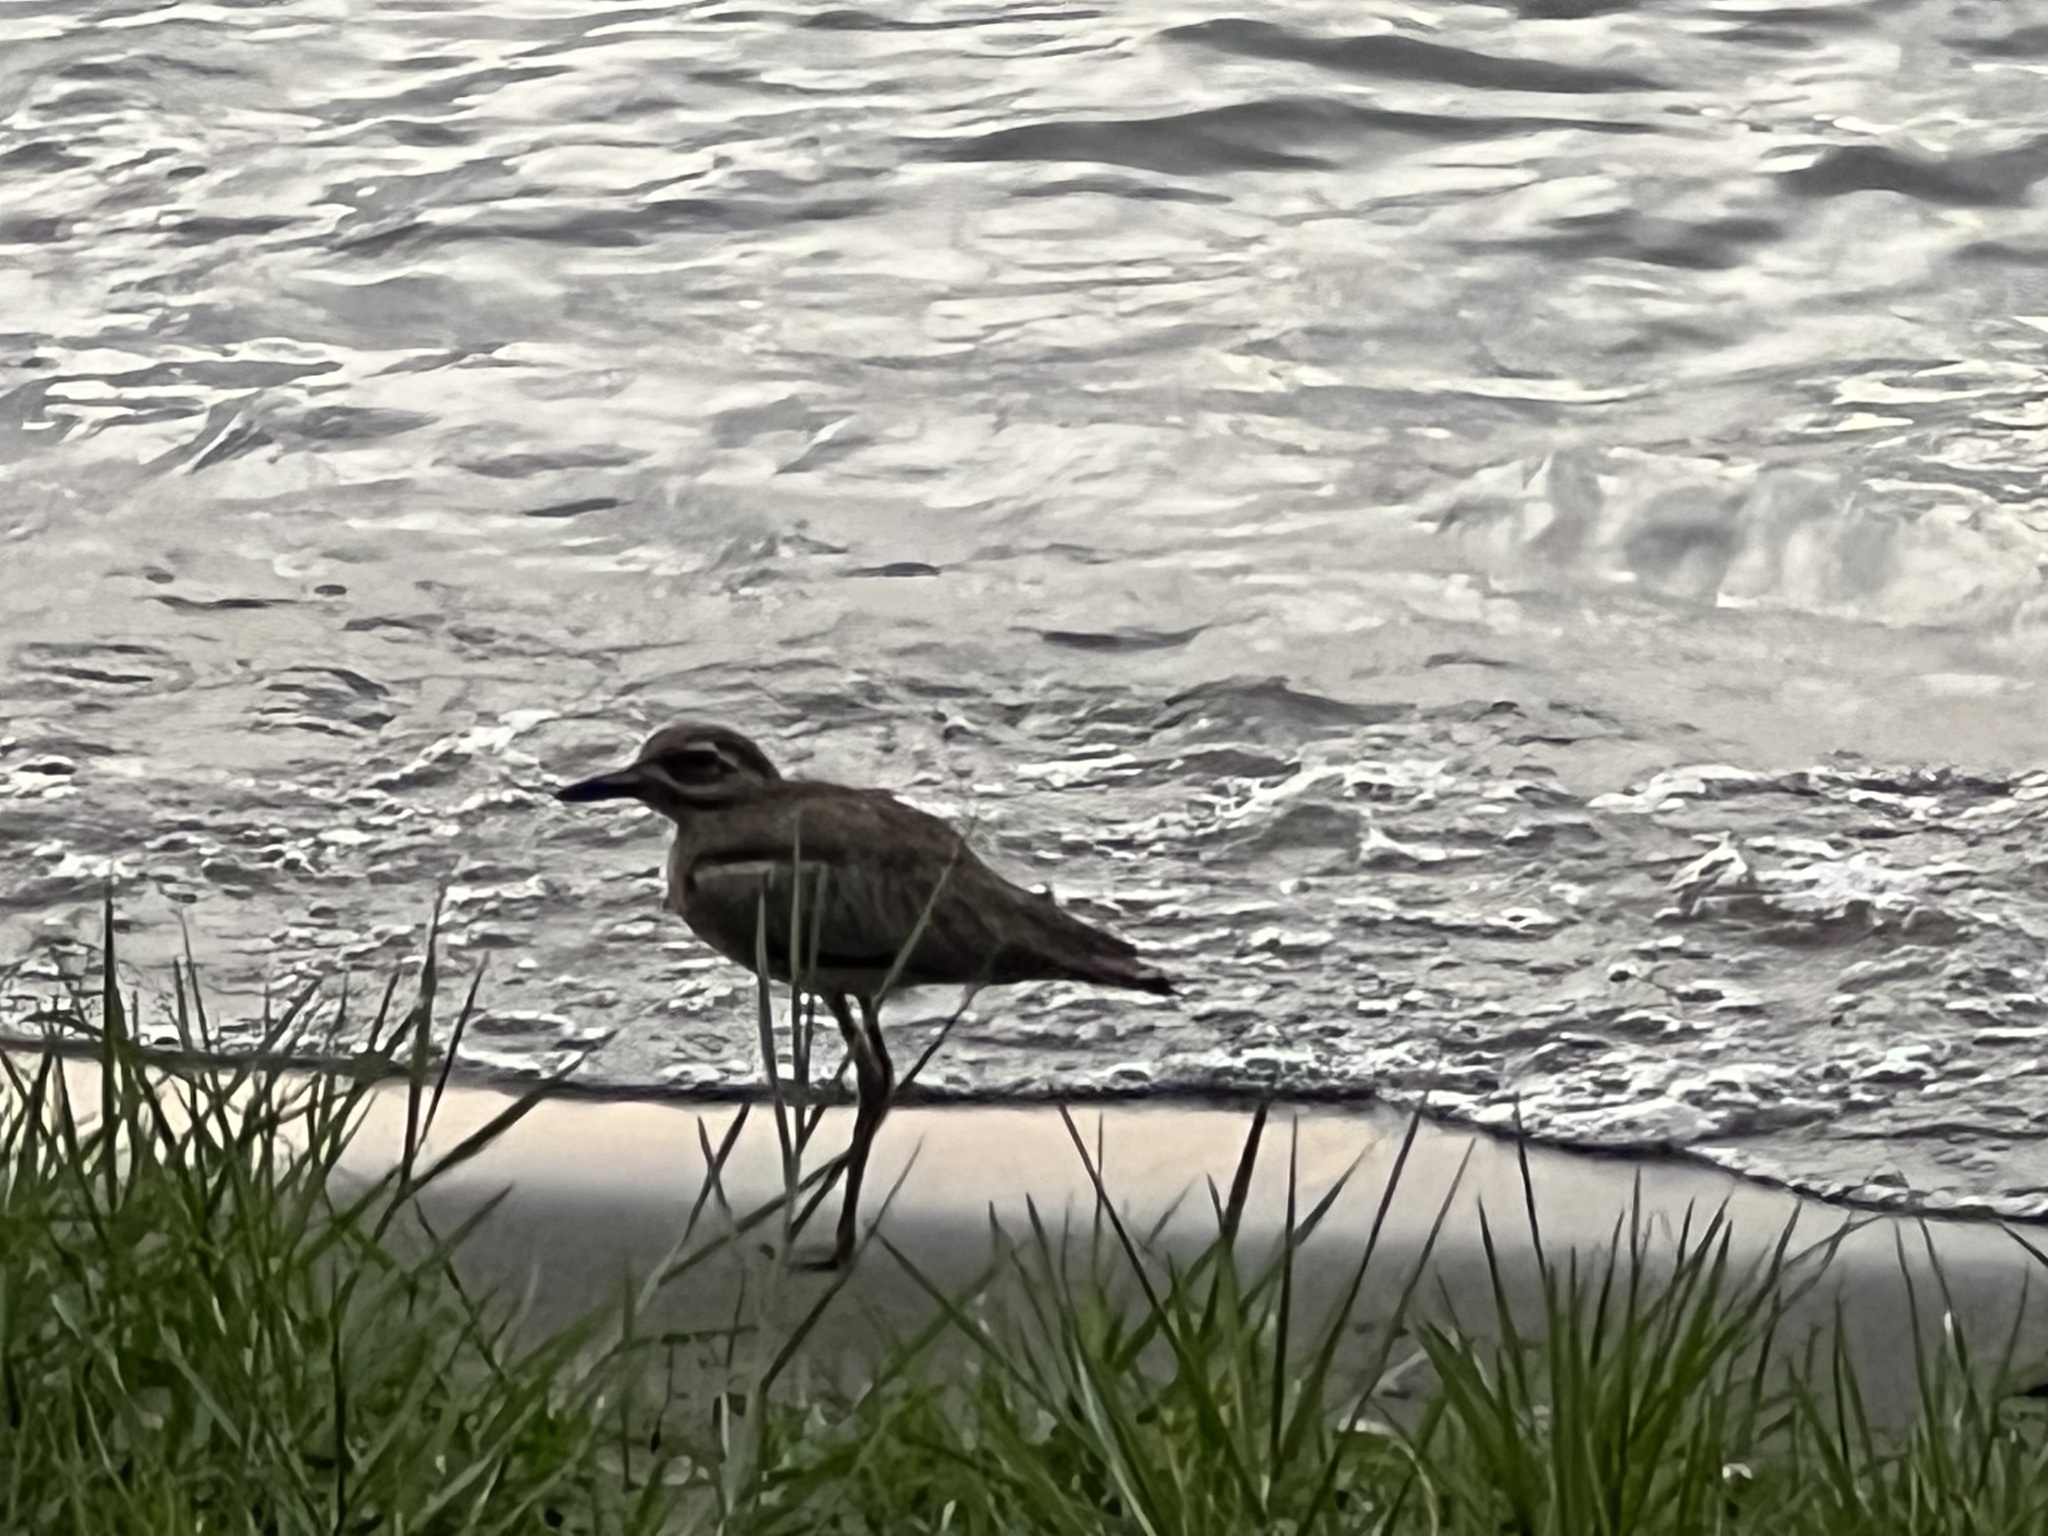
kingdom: Animalia
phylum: Chordata
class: Aves
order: Charadriiformes
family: Burhinidae
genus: Burhinus
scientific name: Burhinus vermiculatus
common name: Water thick-knee
